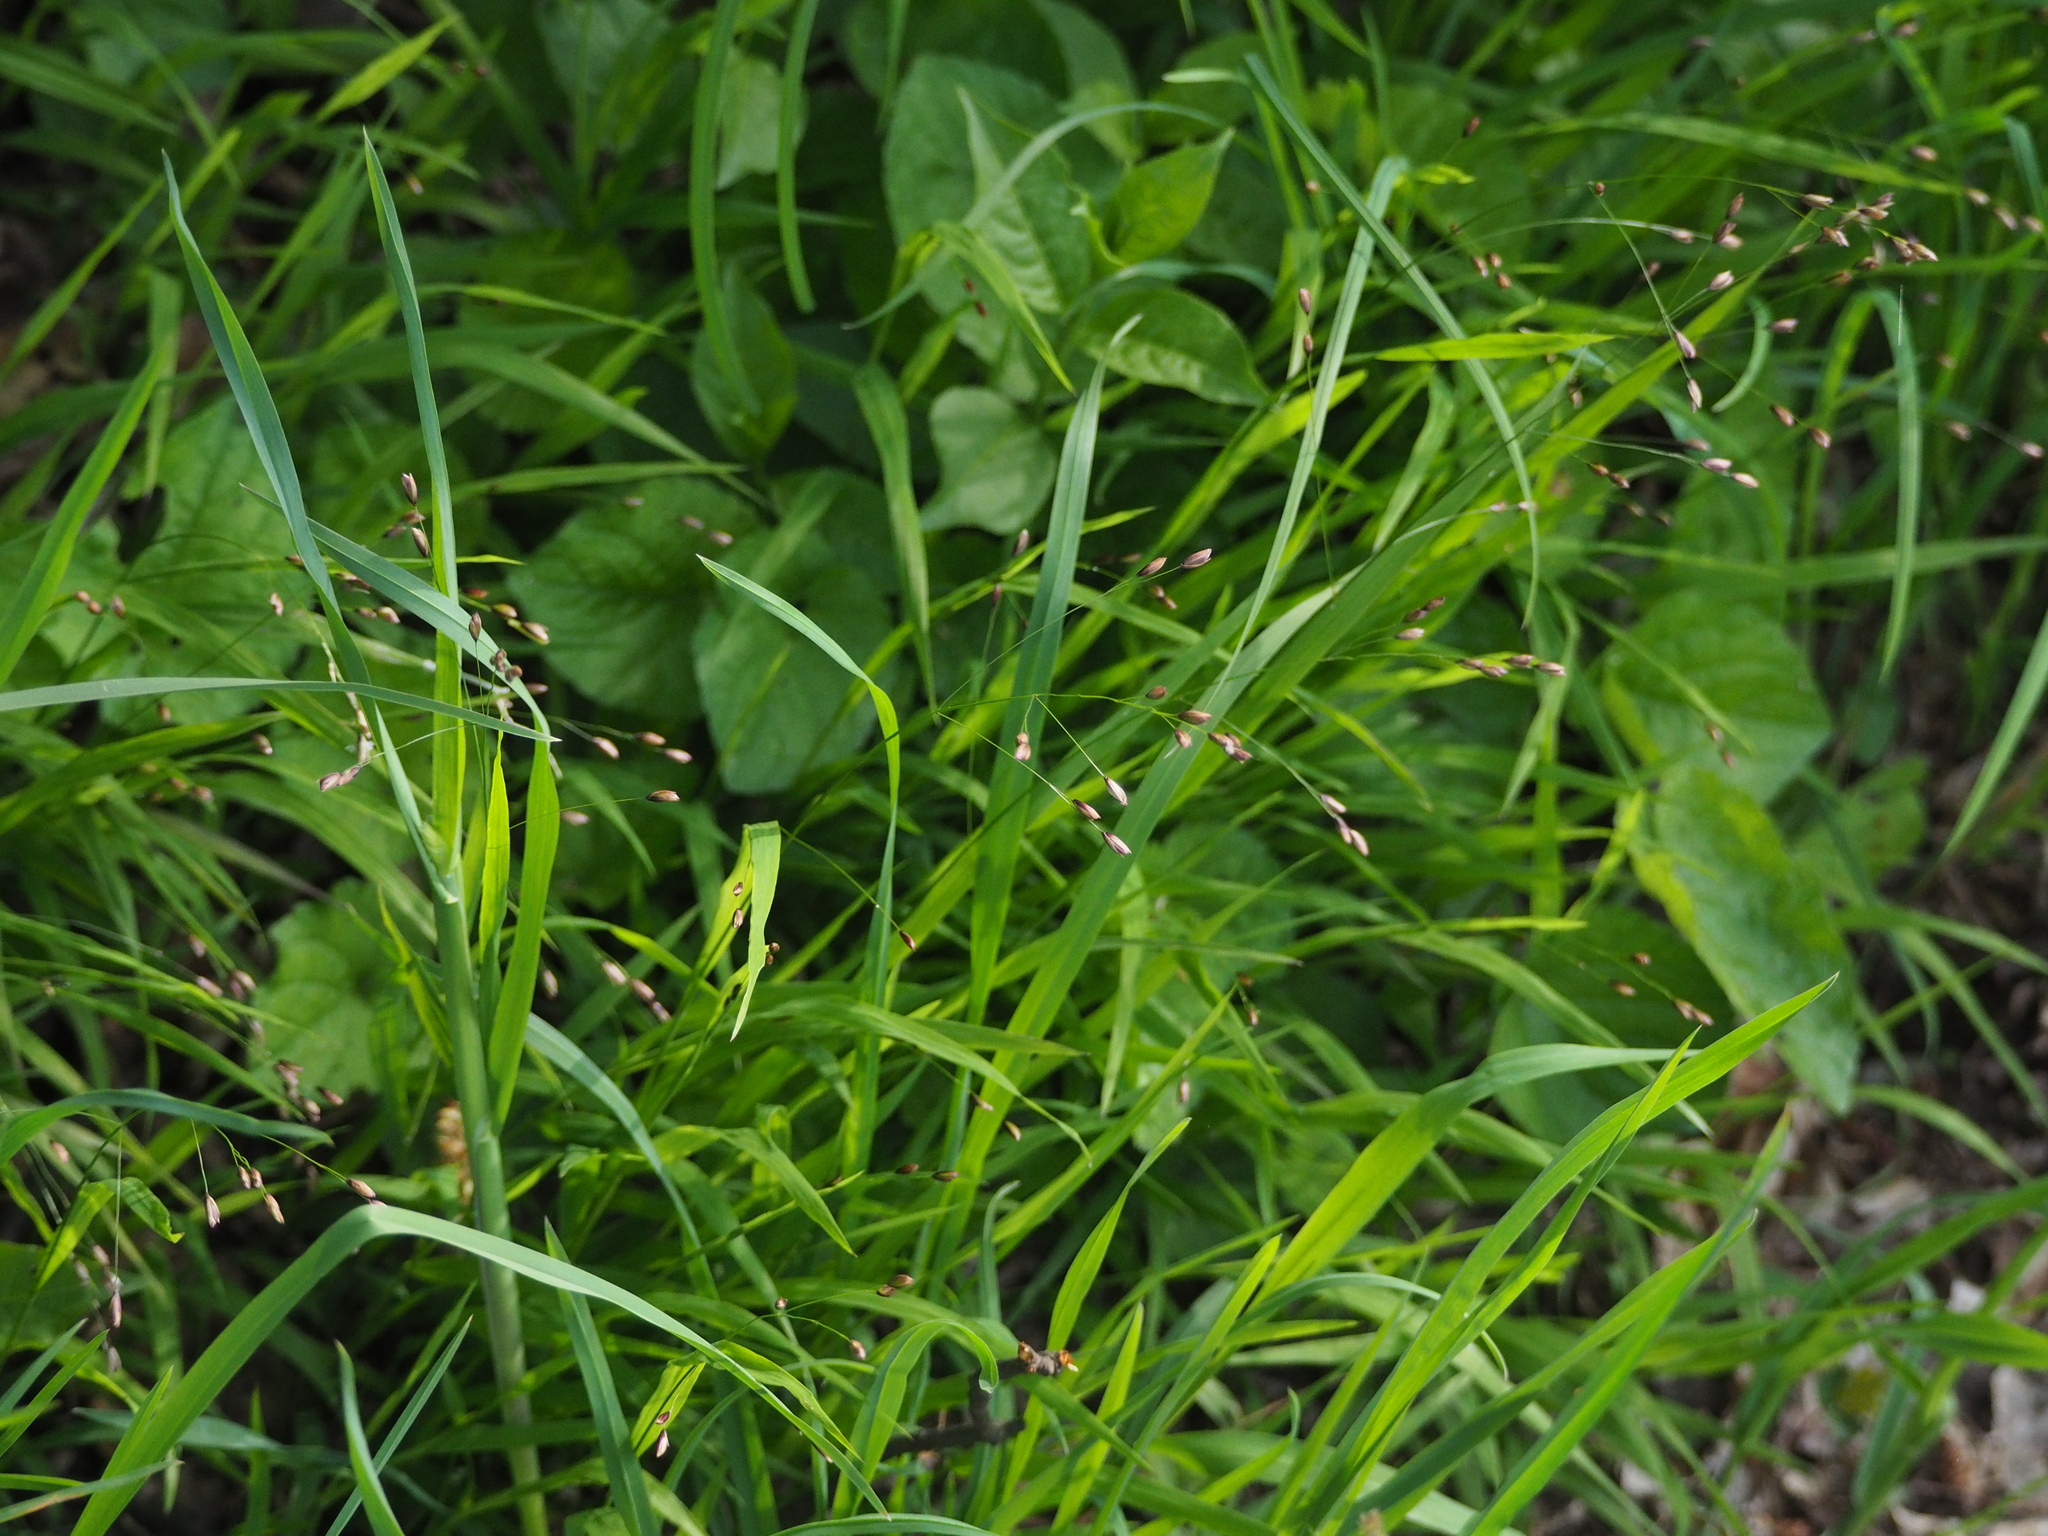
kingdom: Plantae
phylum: Tracheophyta
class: Liliopsida
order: Poales
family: Poaceae
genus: Melica
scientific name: Melica uniflora
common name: Wood melick
